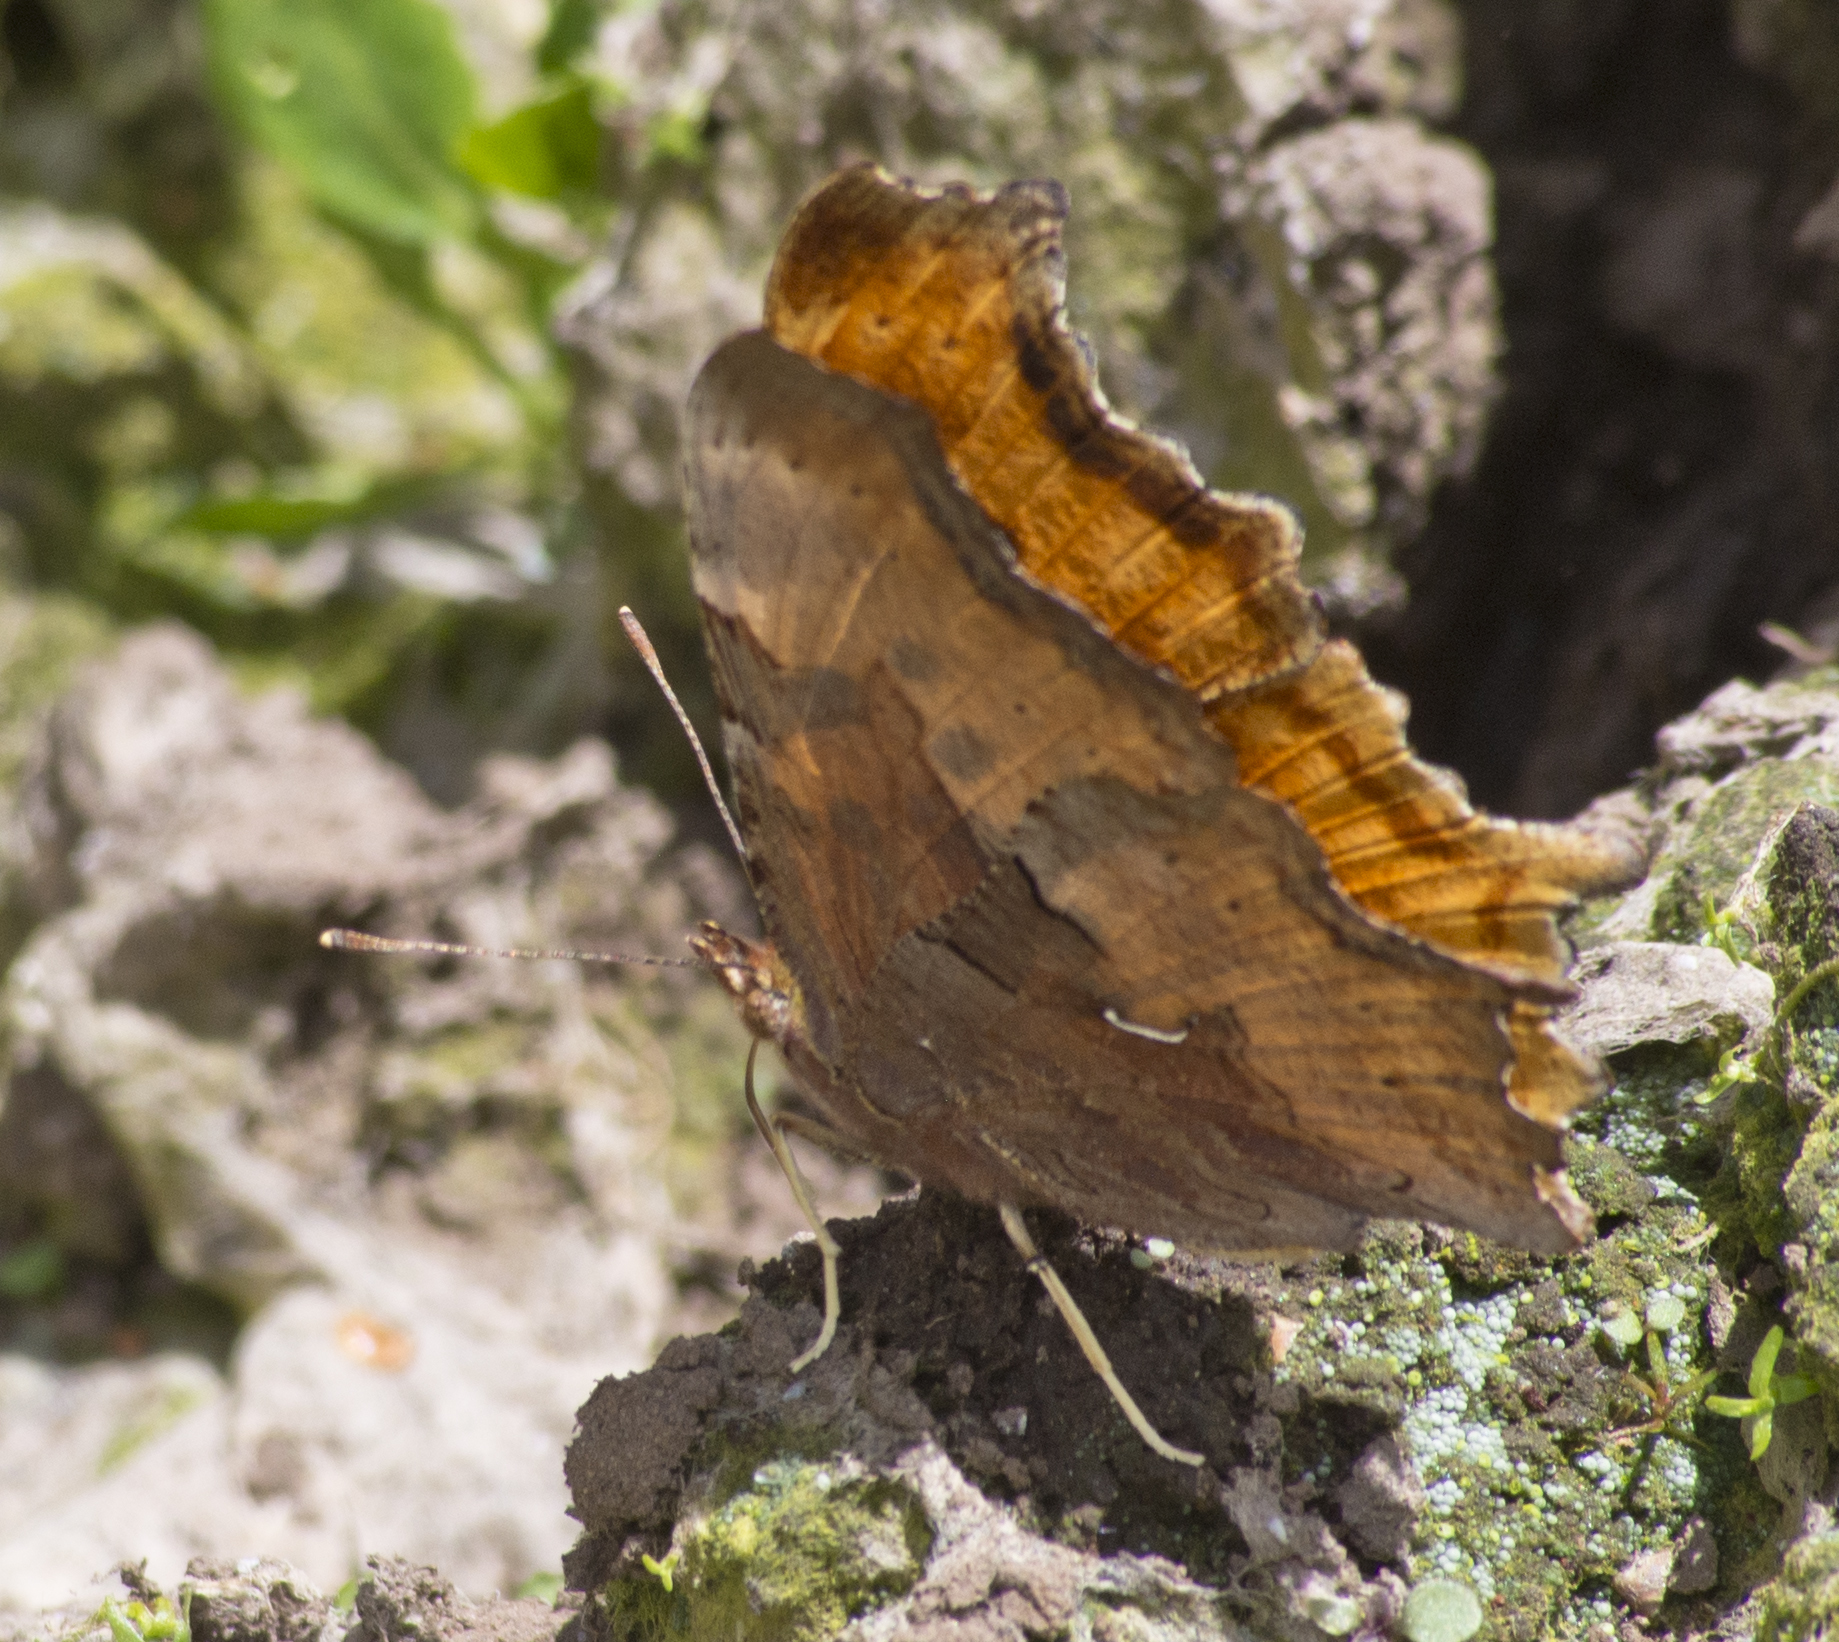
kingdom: Animalia
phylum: Arthropoda
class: Insecta
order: Lepidoptera
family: Nymphalidae
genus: Polygonia
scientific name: Polygonia satyrus
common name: Satyr angle wing
